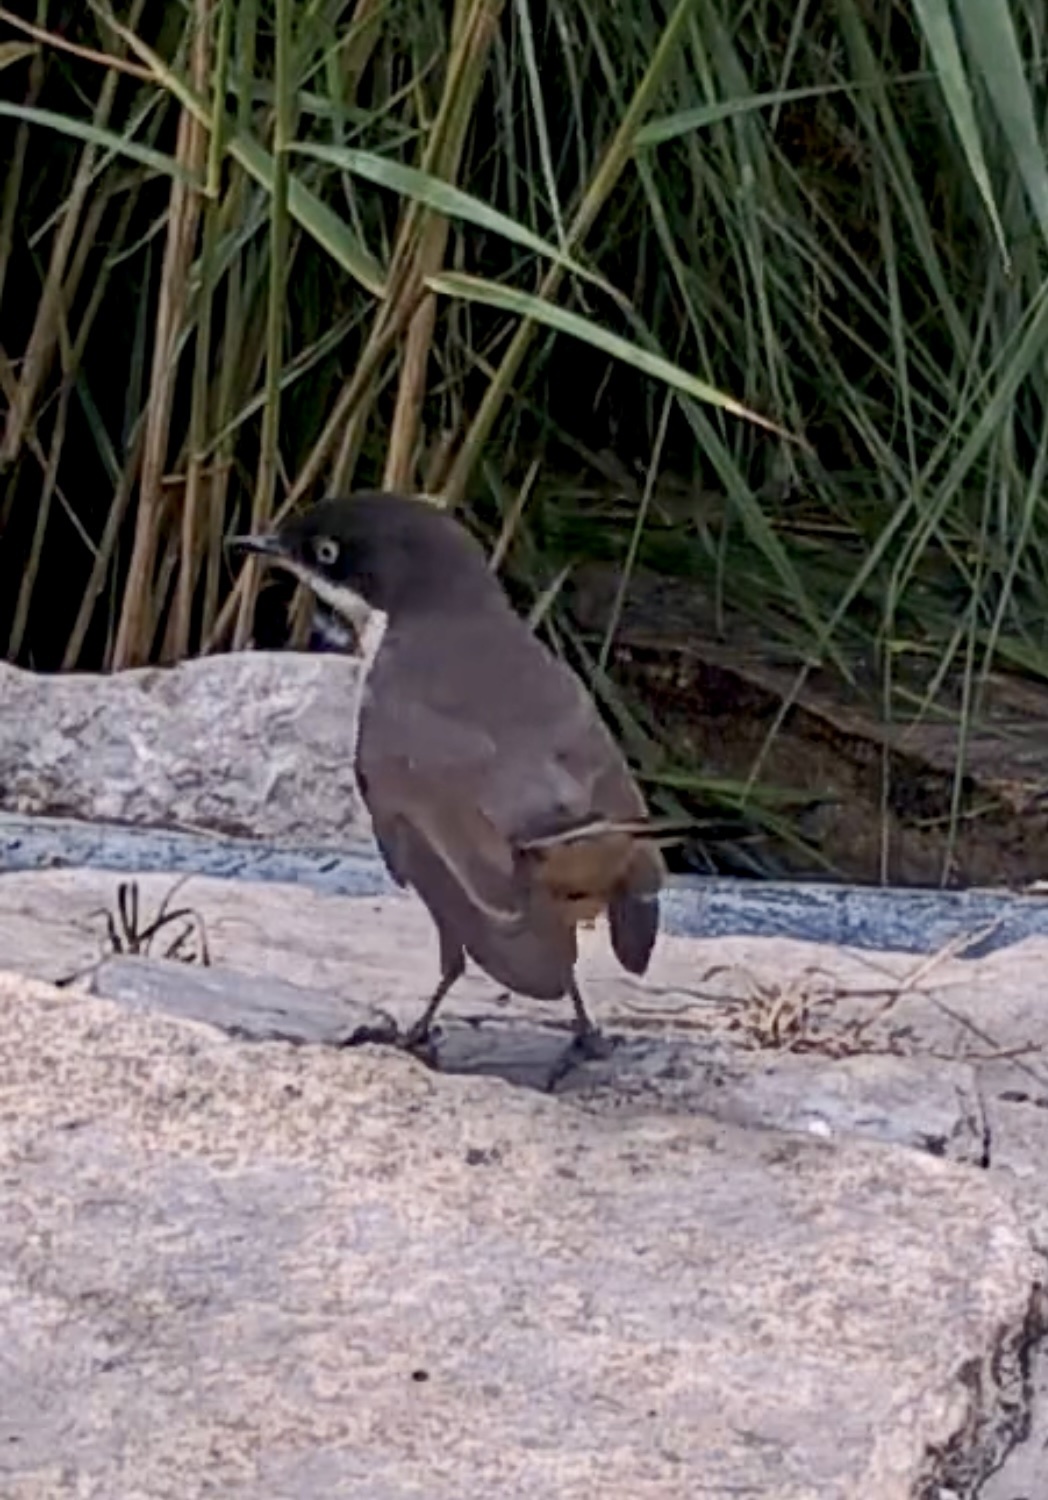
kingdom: Animalia
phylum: Chordata
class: Aves
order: Passeriformes
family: Sylviidae
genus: Sylvia
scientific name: Sylvia hortensis
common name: Orphean warbler
